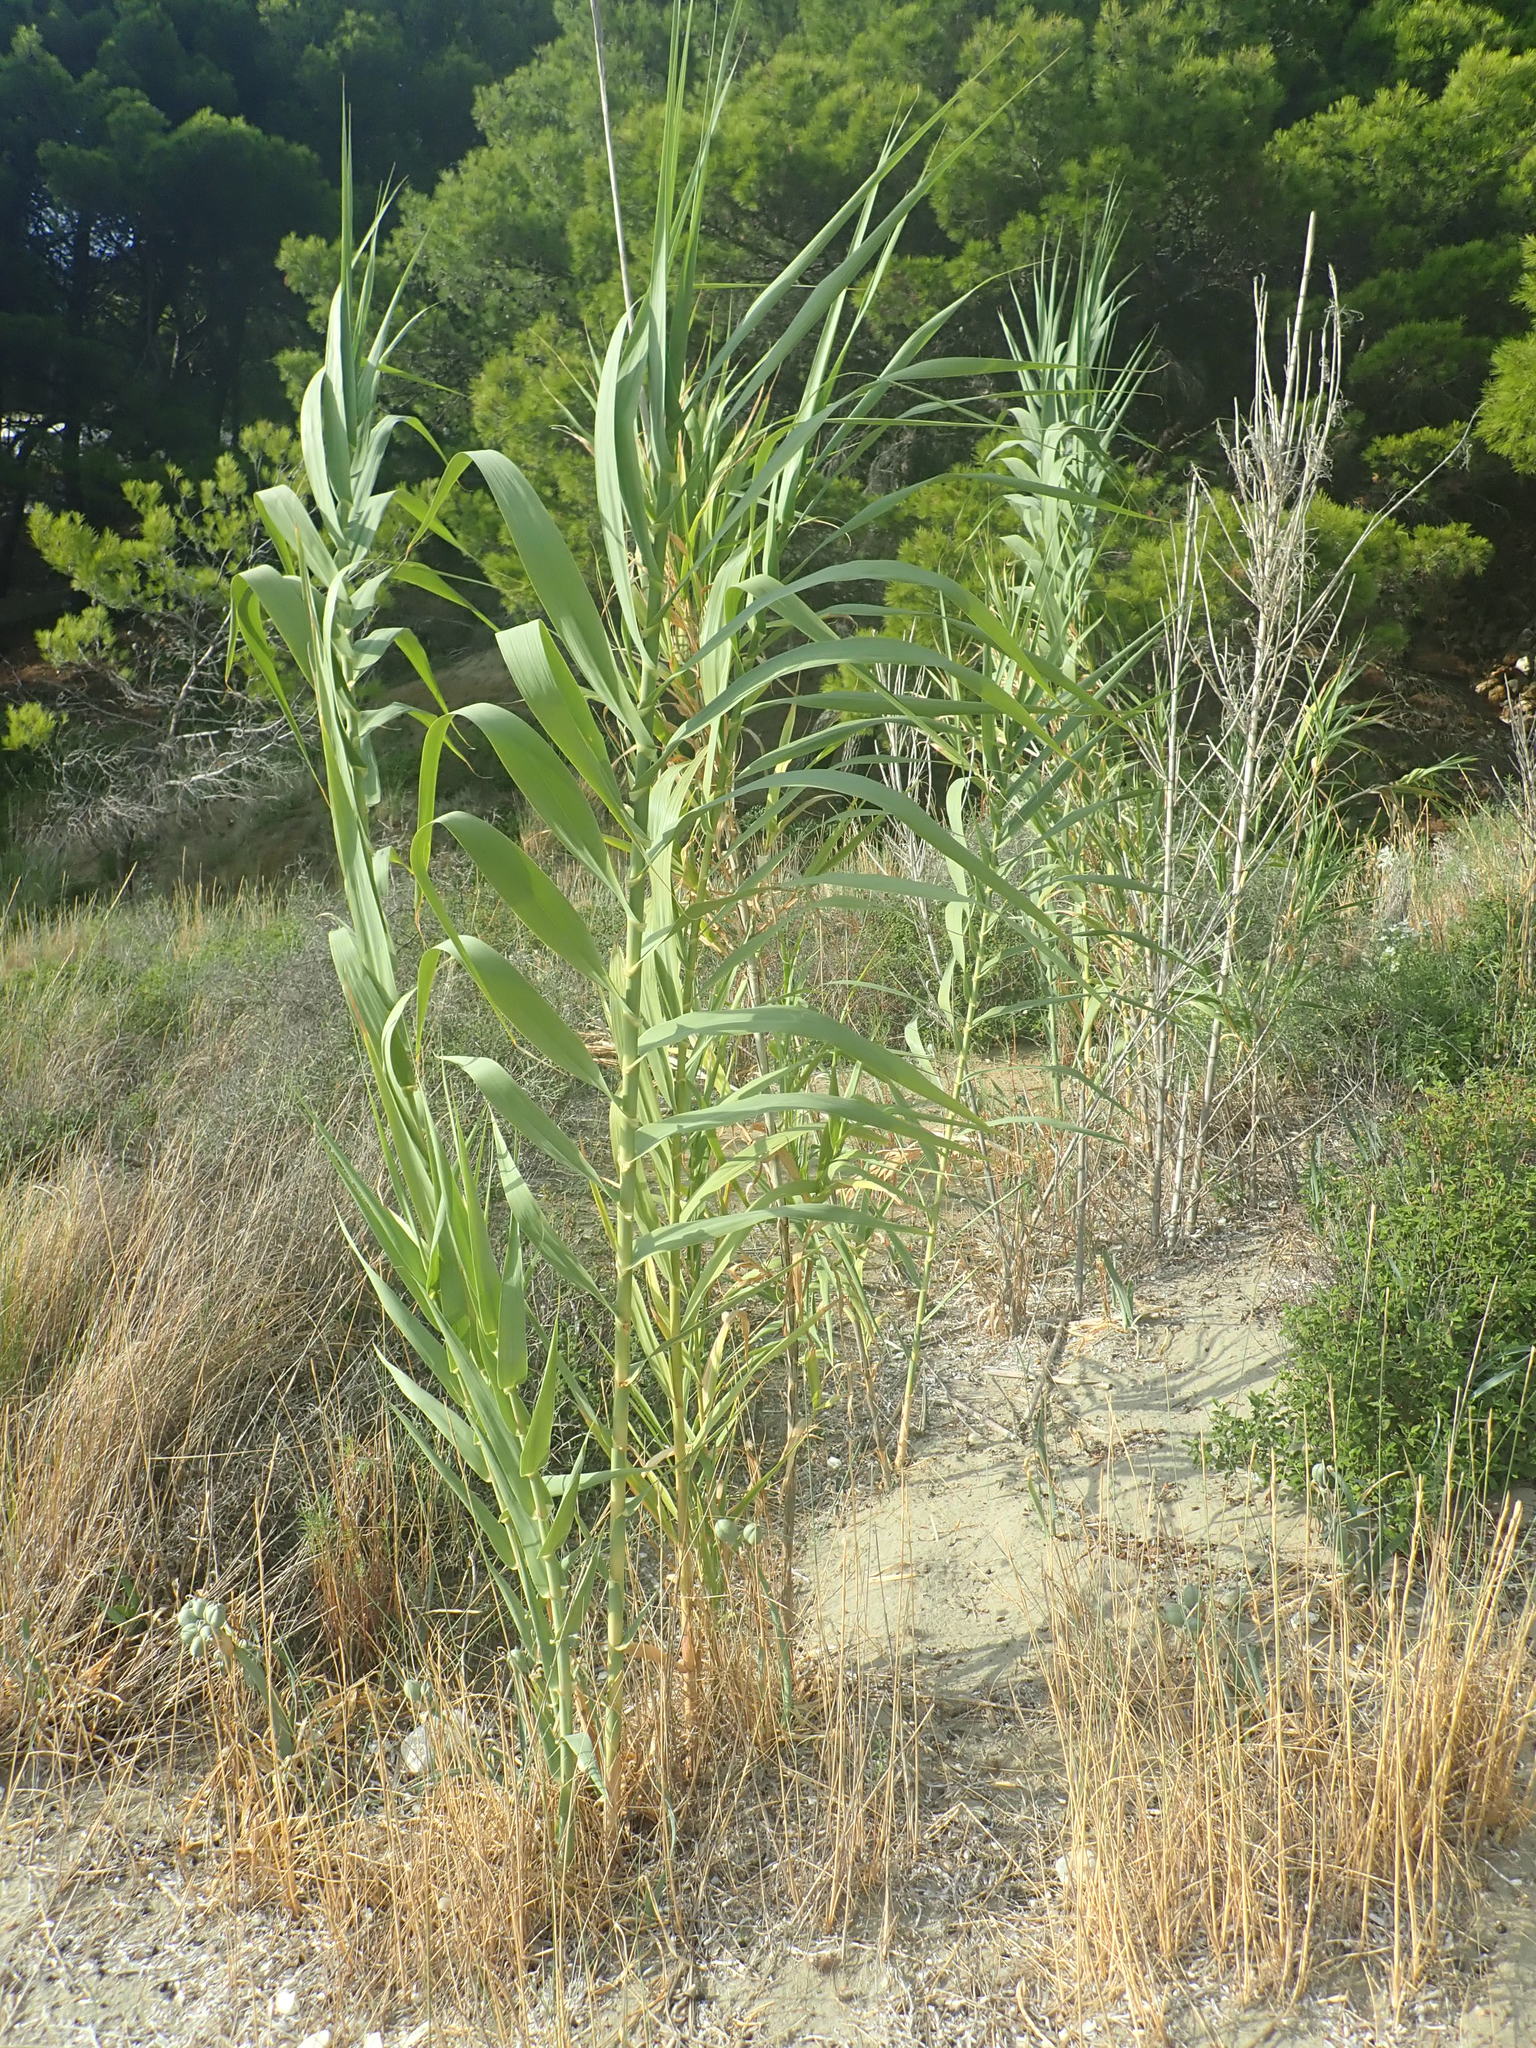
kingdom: Plantae
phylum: Tracheophyta
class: Liliopsida
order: Poales
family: Poaceae
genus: Arundo
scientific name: Arundo donax
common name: Giant reed
